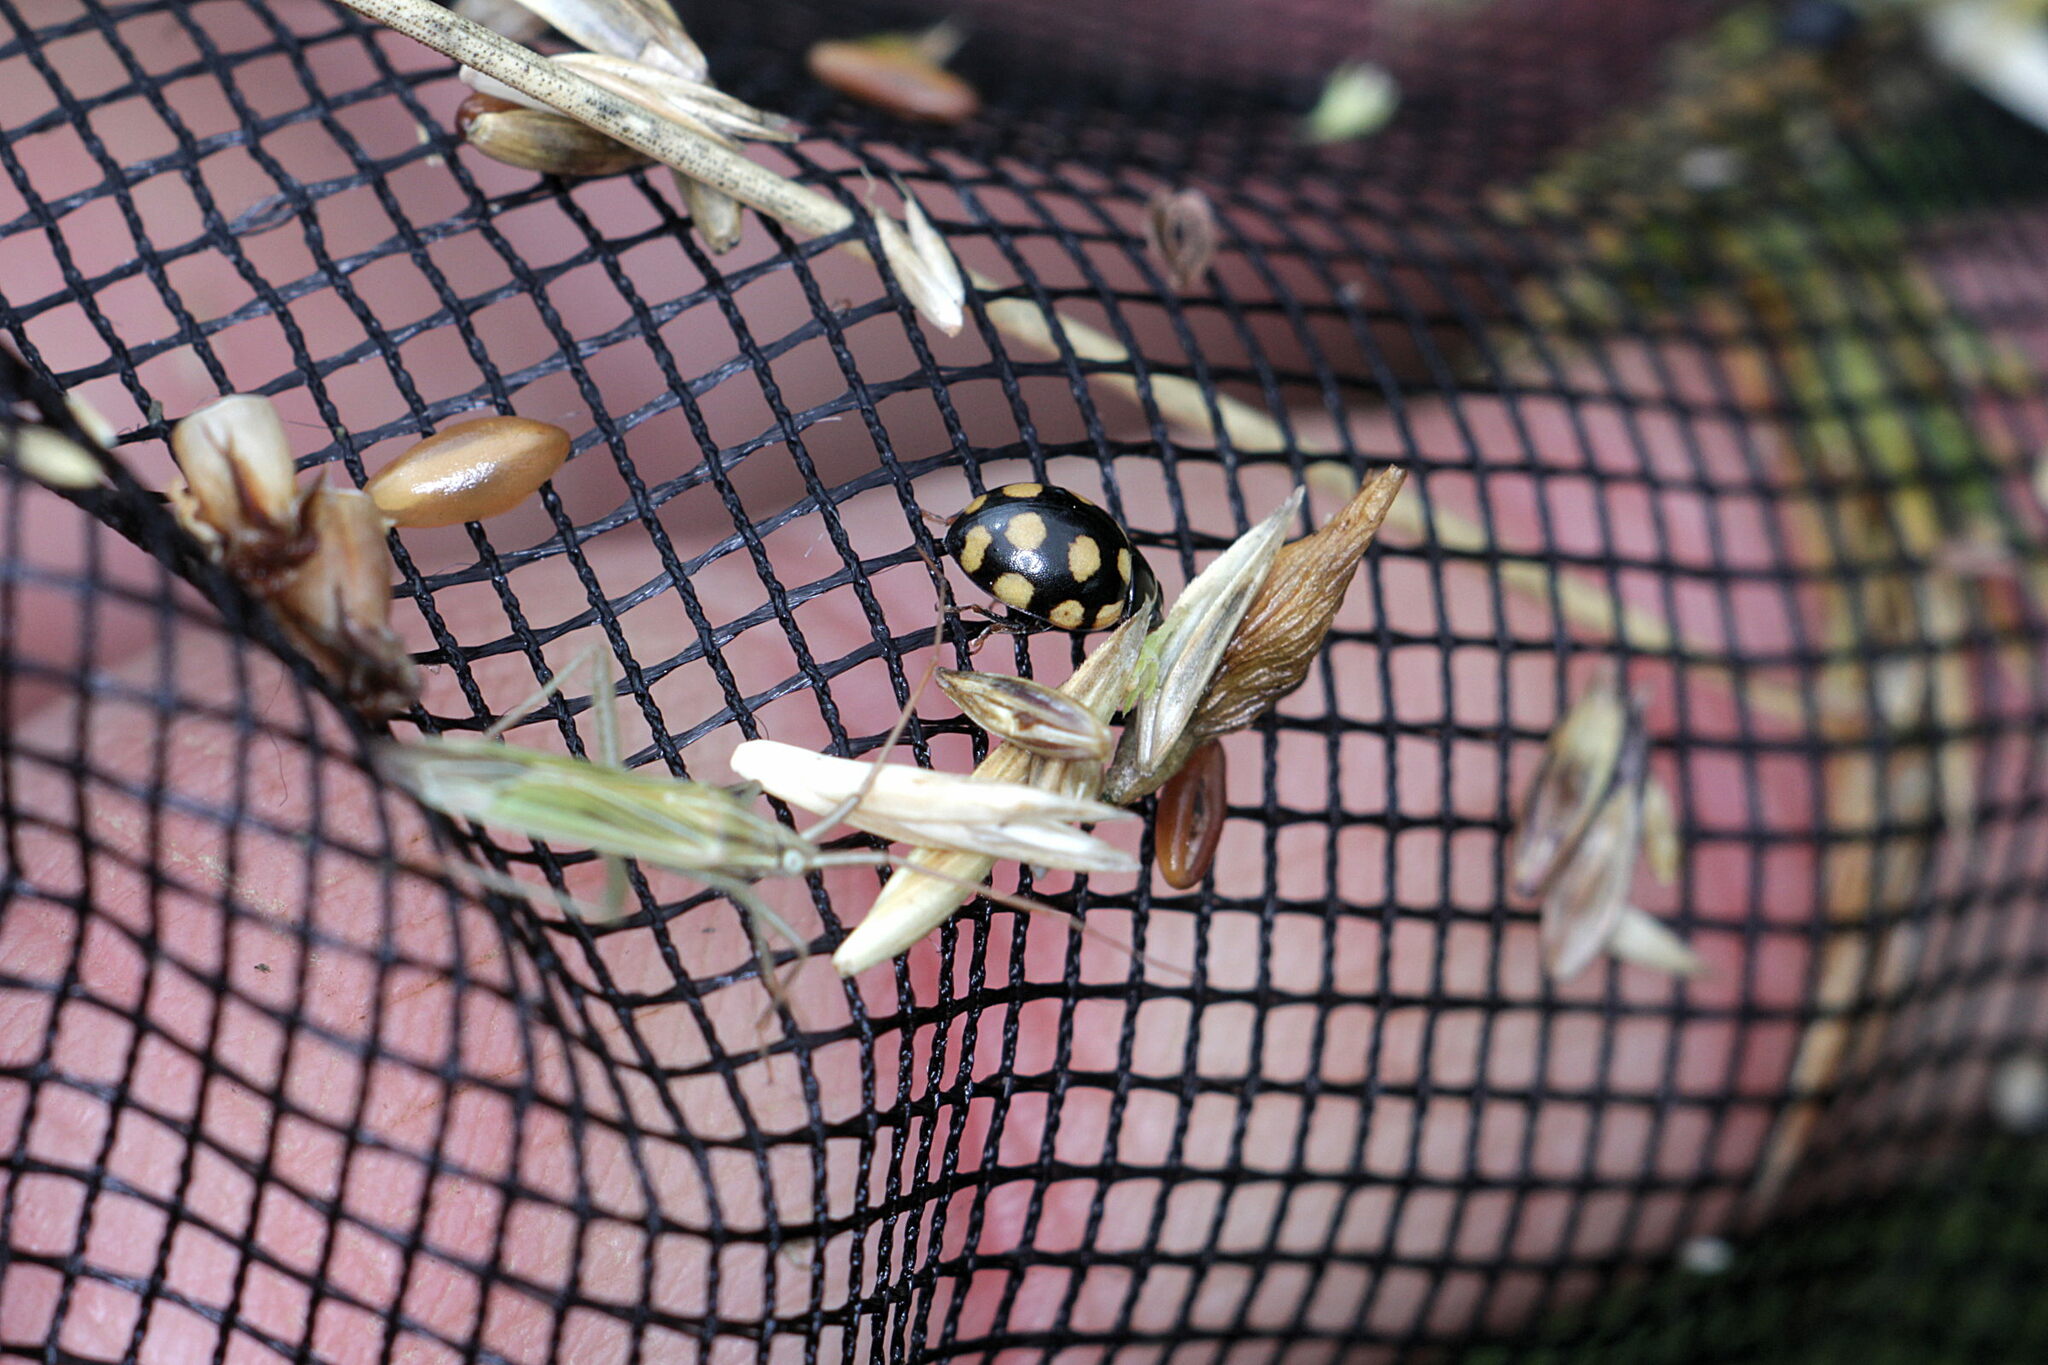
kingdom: Animalia
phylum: Arthropoda
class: Insecta
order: Coleoptera
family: Coccinellidae
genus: Coccinula
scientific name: Coccinula quatuordecimpustulata
